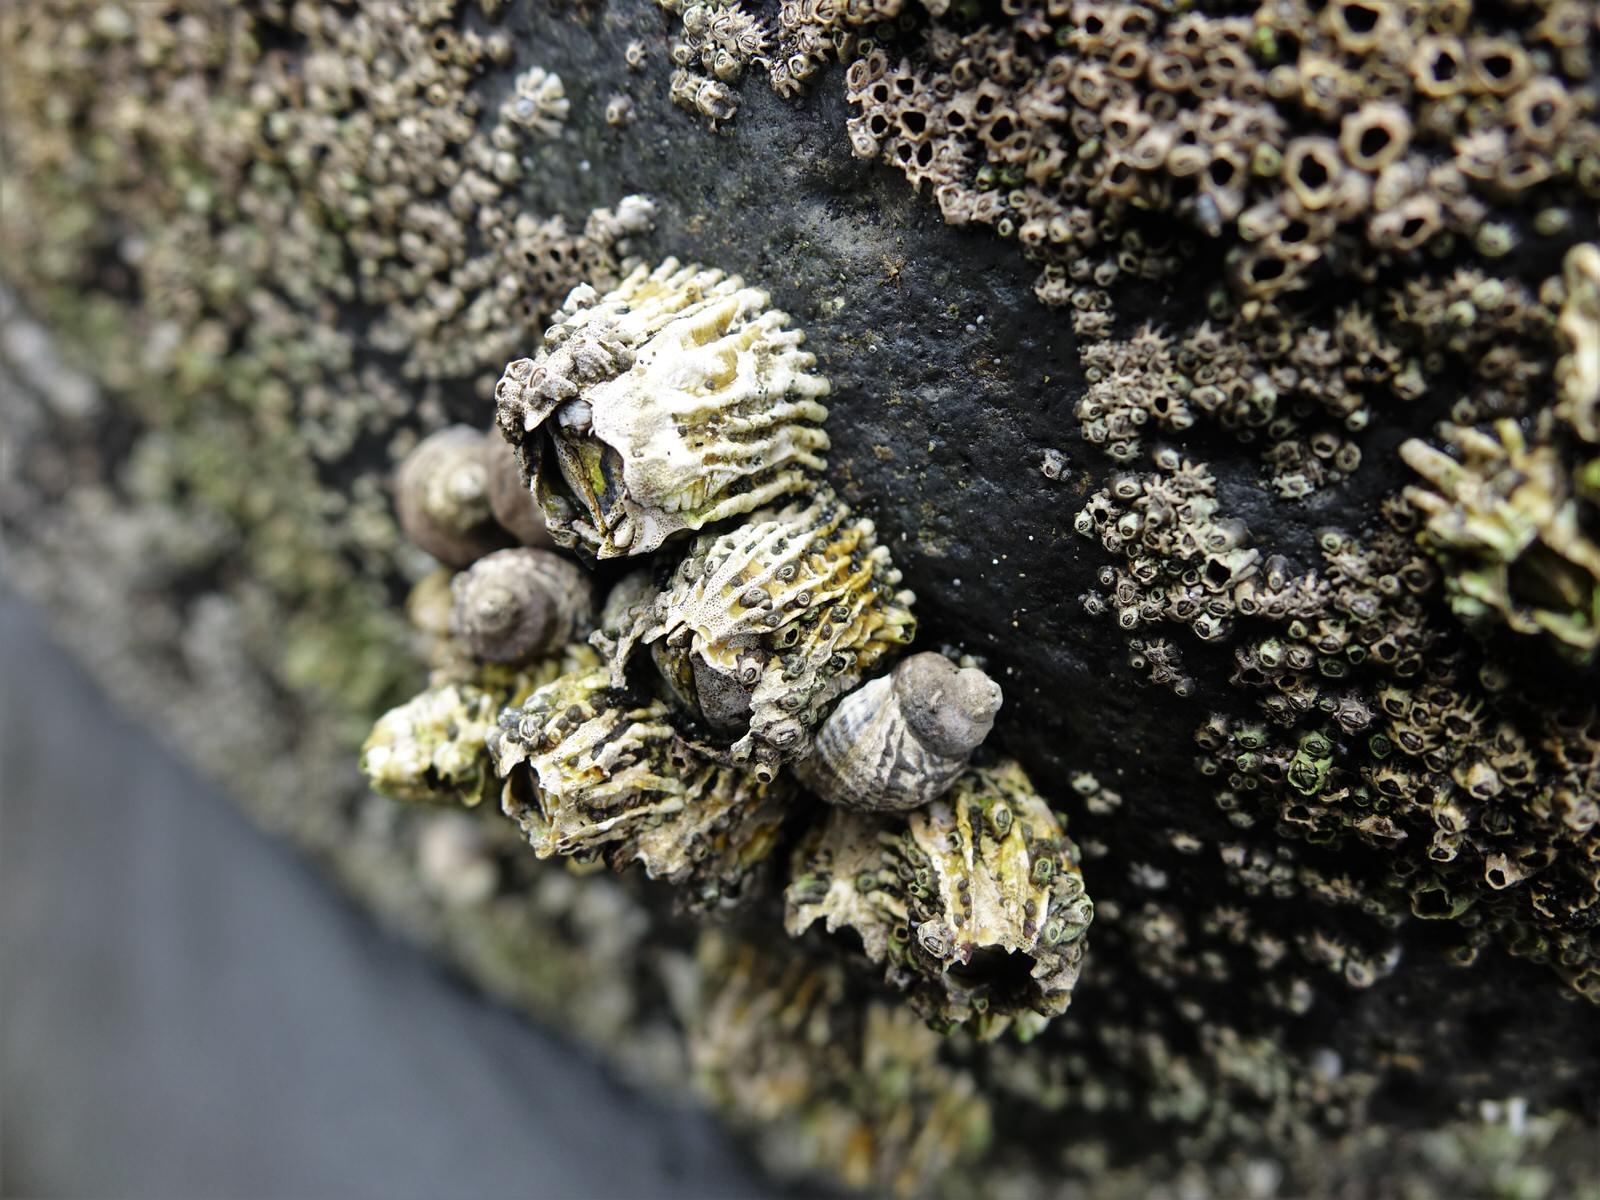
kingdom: Animalia
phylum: Arthropoda
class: Maxillopoda
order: Sessilia
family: Tetraclitidae
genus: Epopella
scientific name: Epopella plicata
